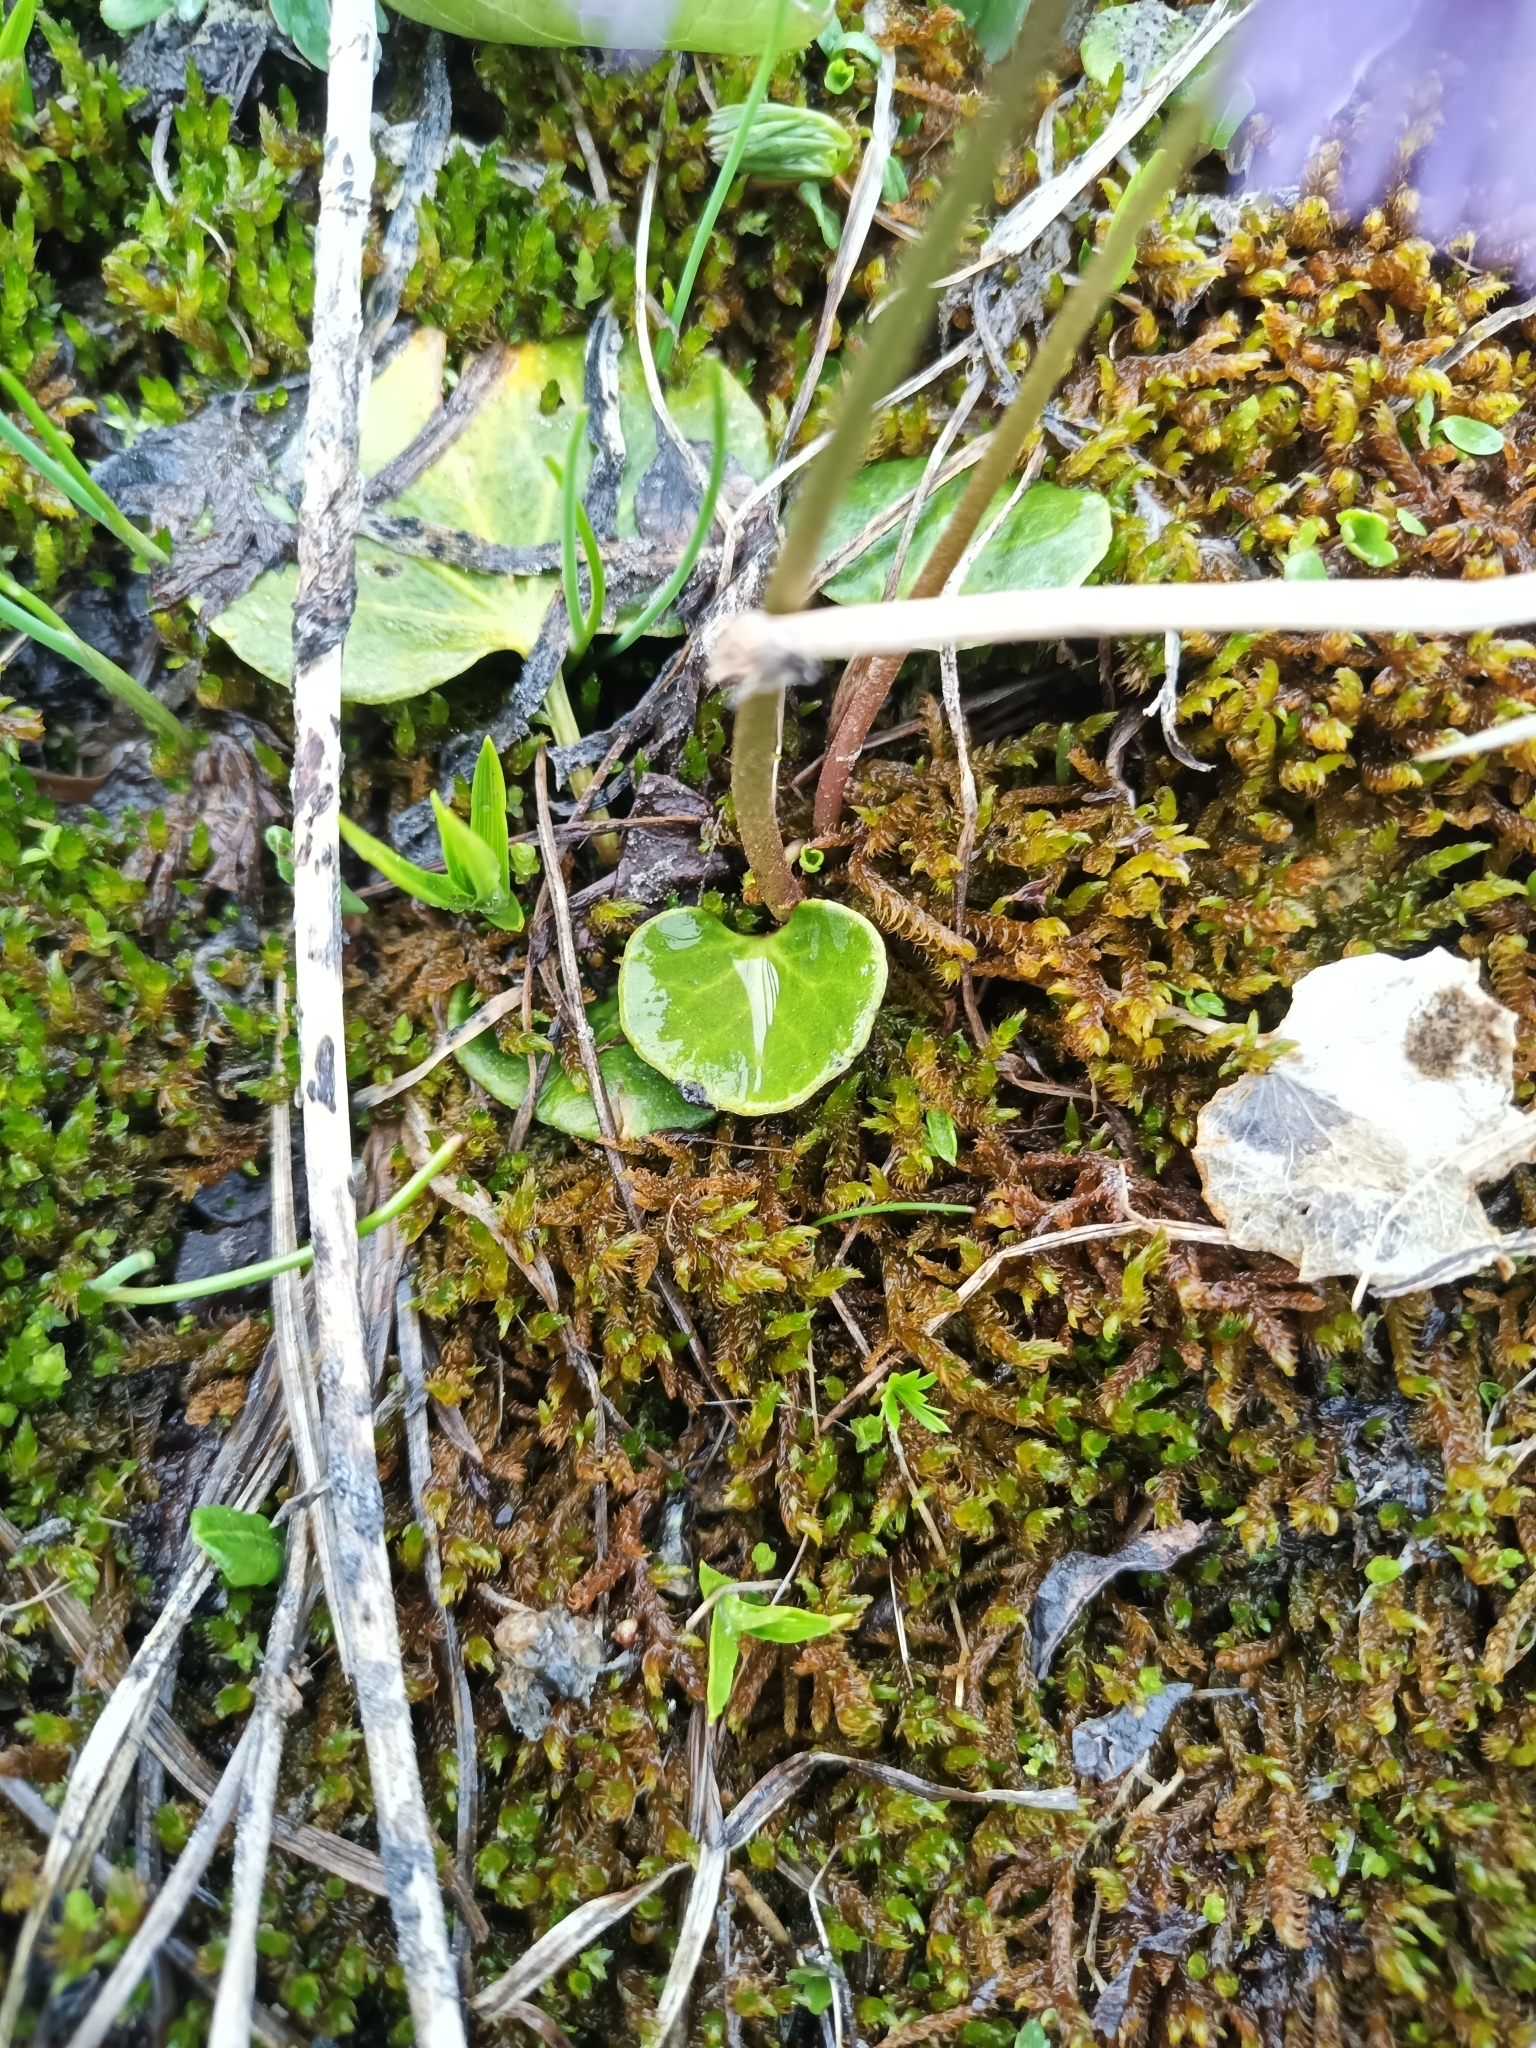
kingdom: Plantae
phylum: Tracheophyta
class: Magnoliopsida
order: Ericales
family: Primulaceae
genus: Soldanella
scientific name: Soldanella alpina
